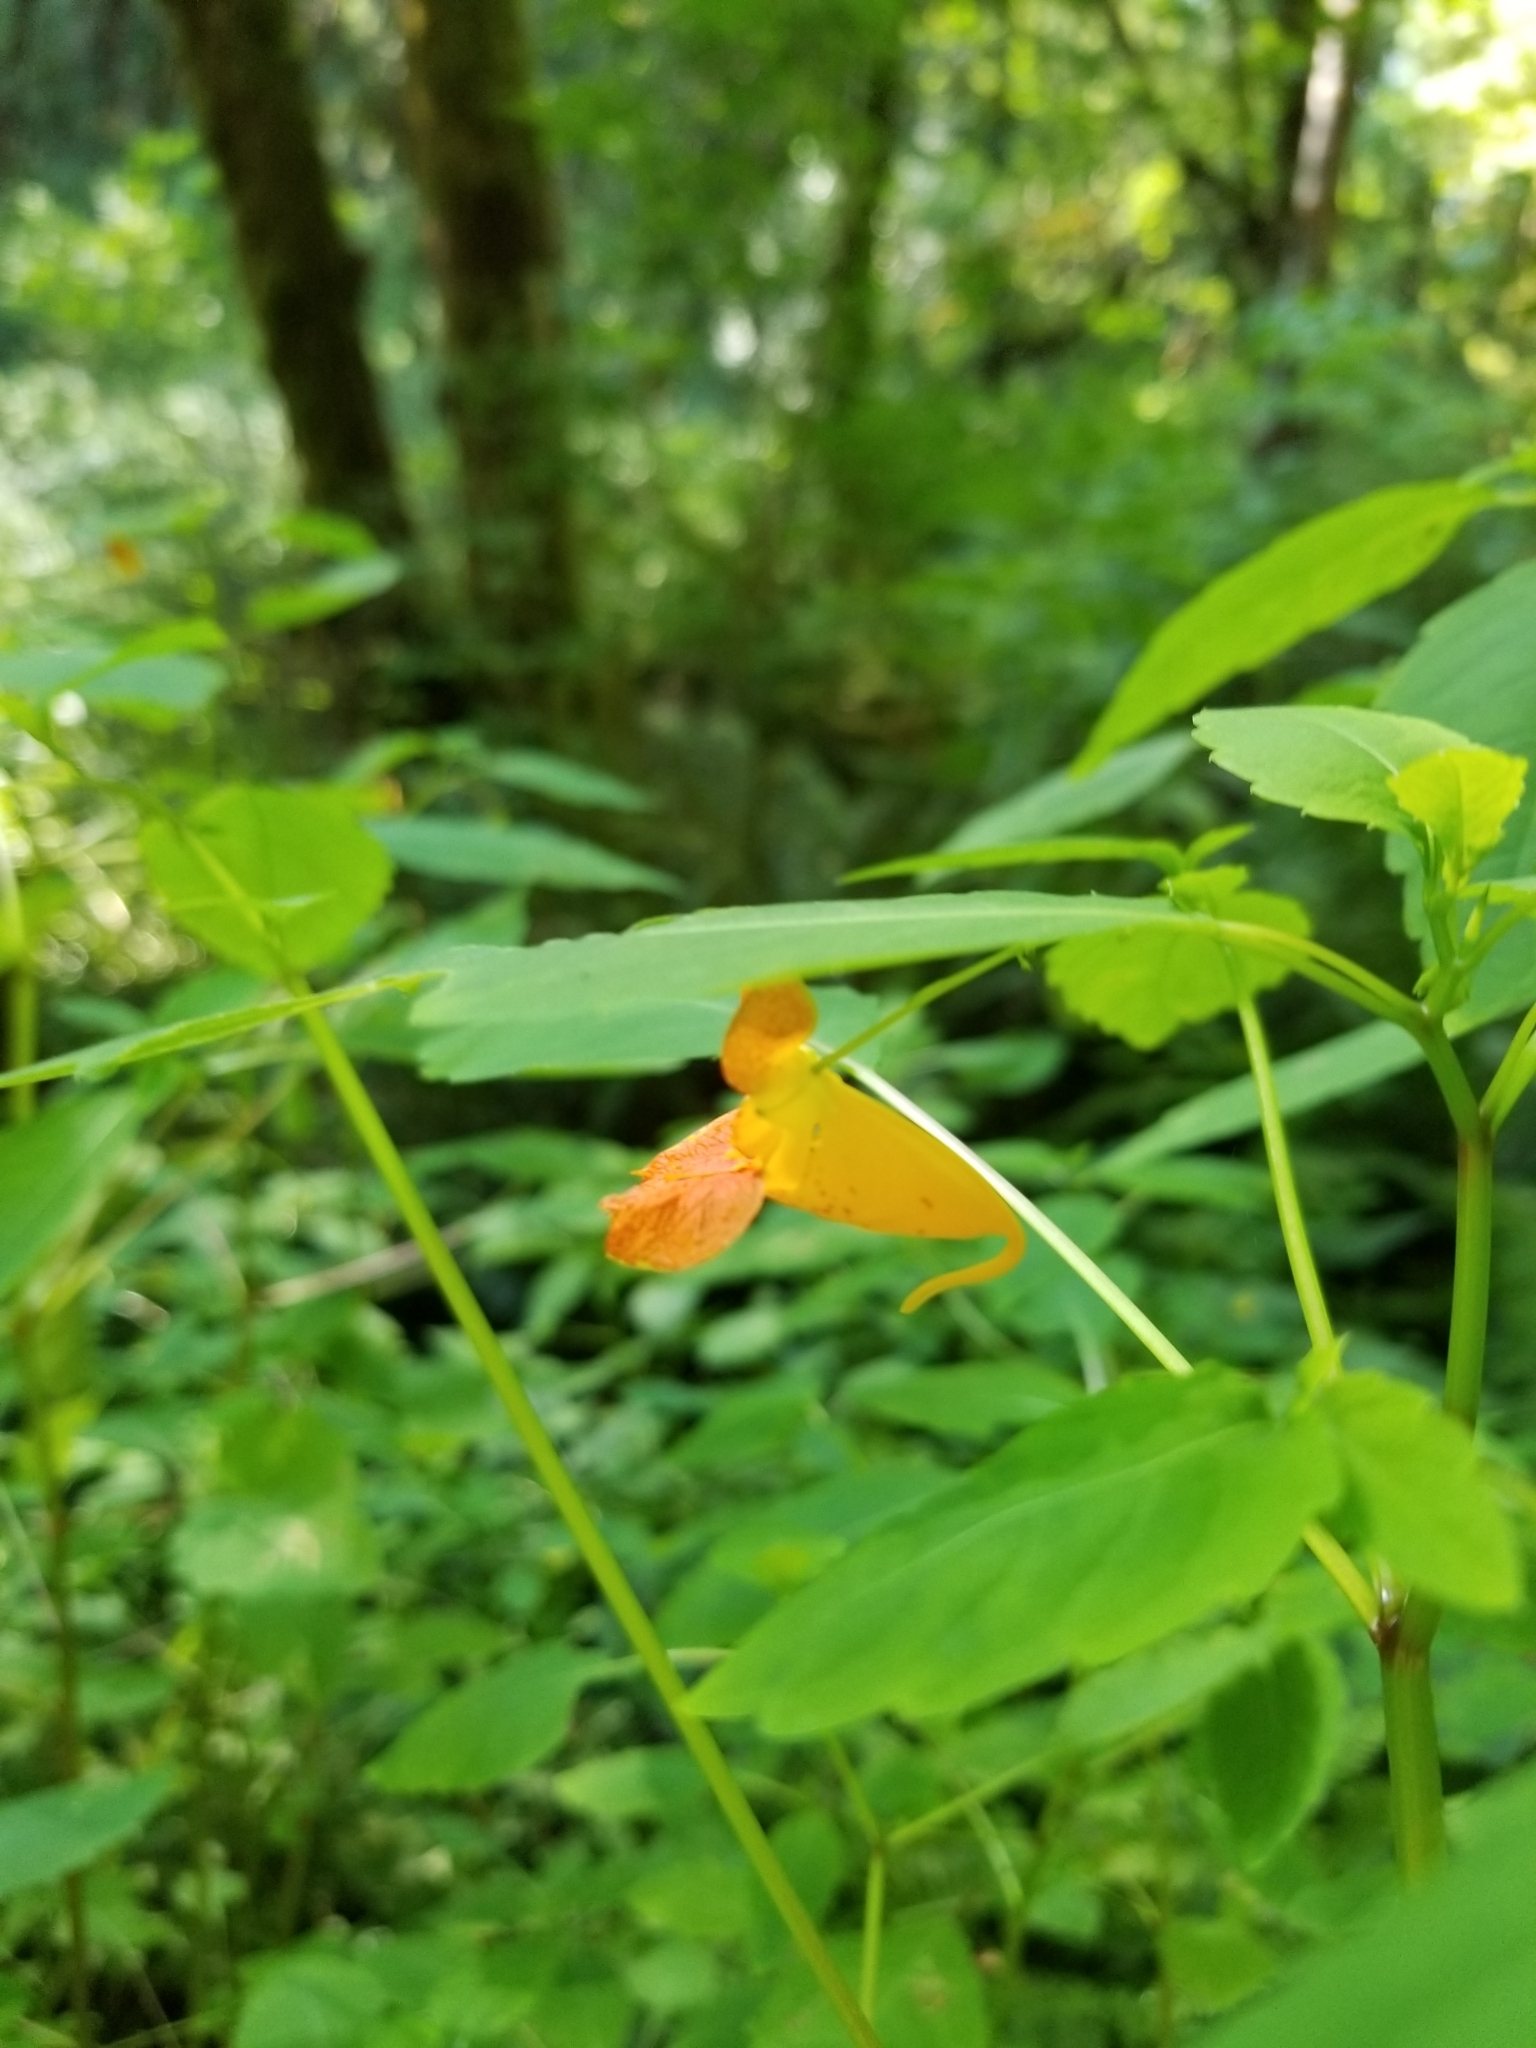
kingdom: Plantae
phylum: Tracheophyta
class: Magnoliopsida
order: Ericales
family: Balsaminaceae
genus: Impatiens
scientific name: Impatiens capensis
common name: Orange balsam
